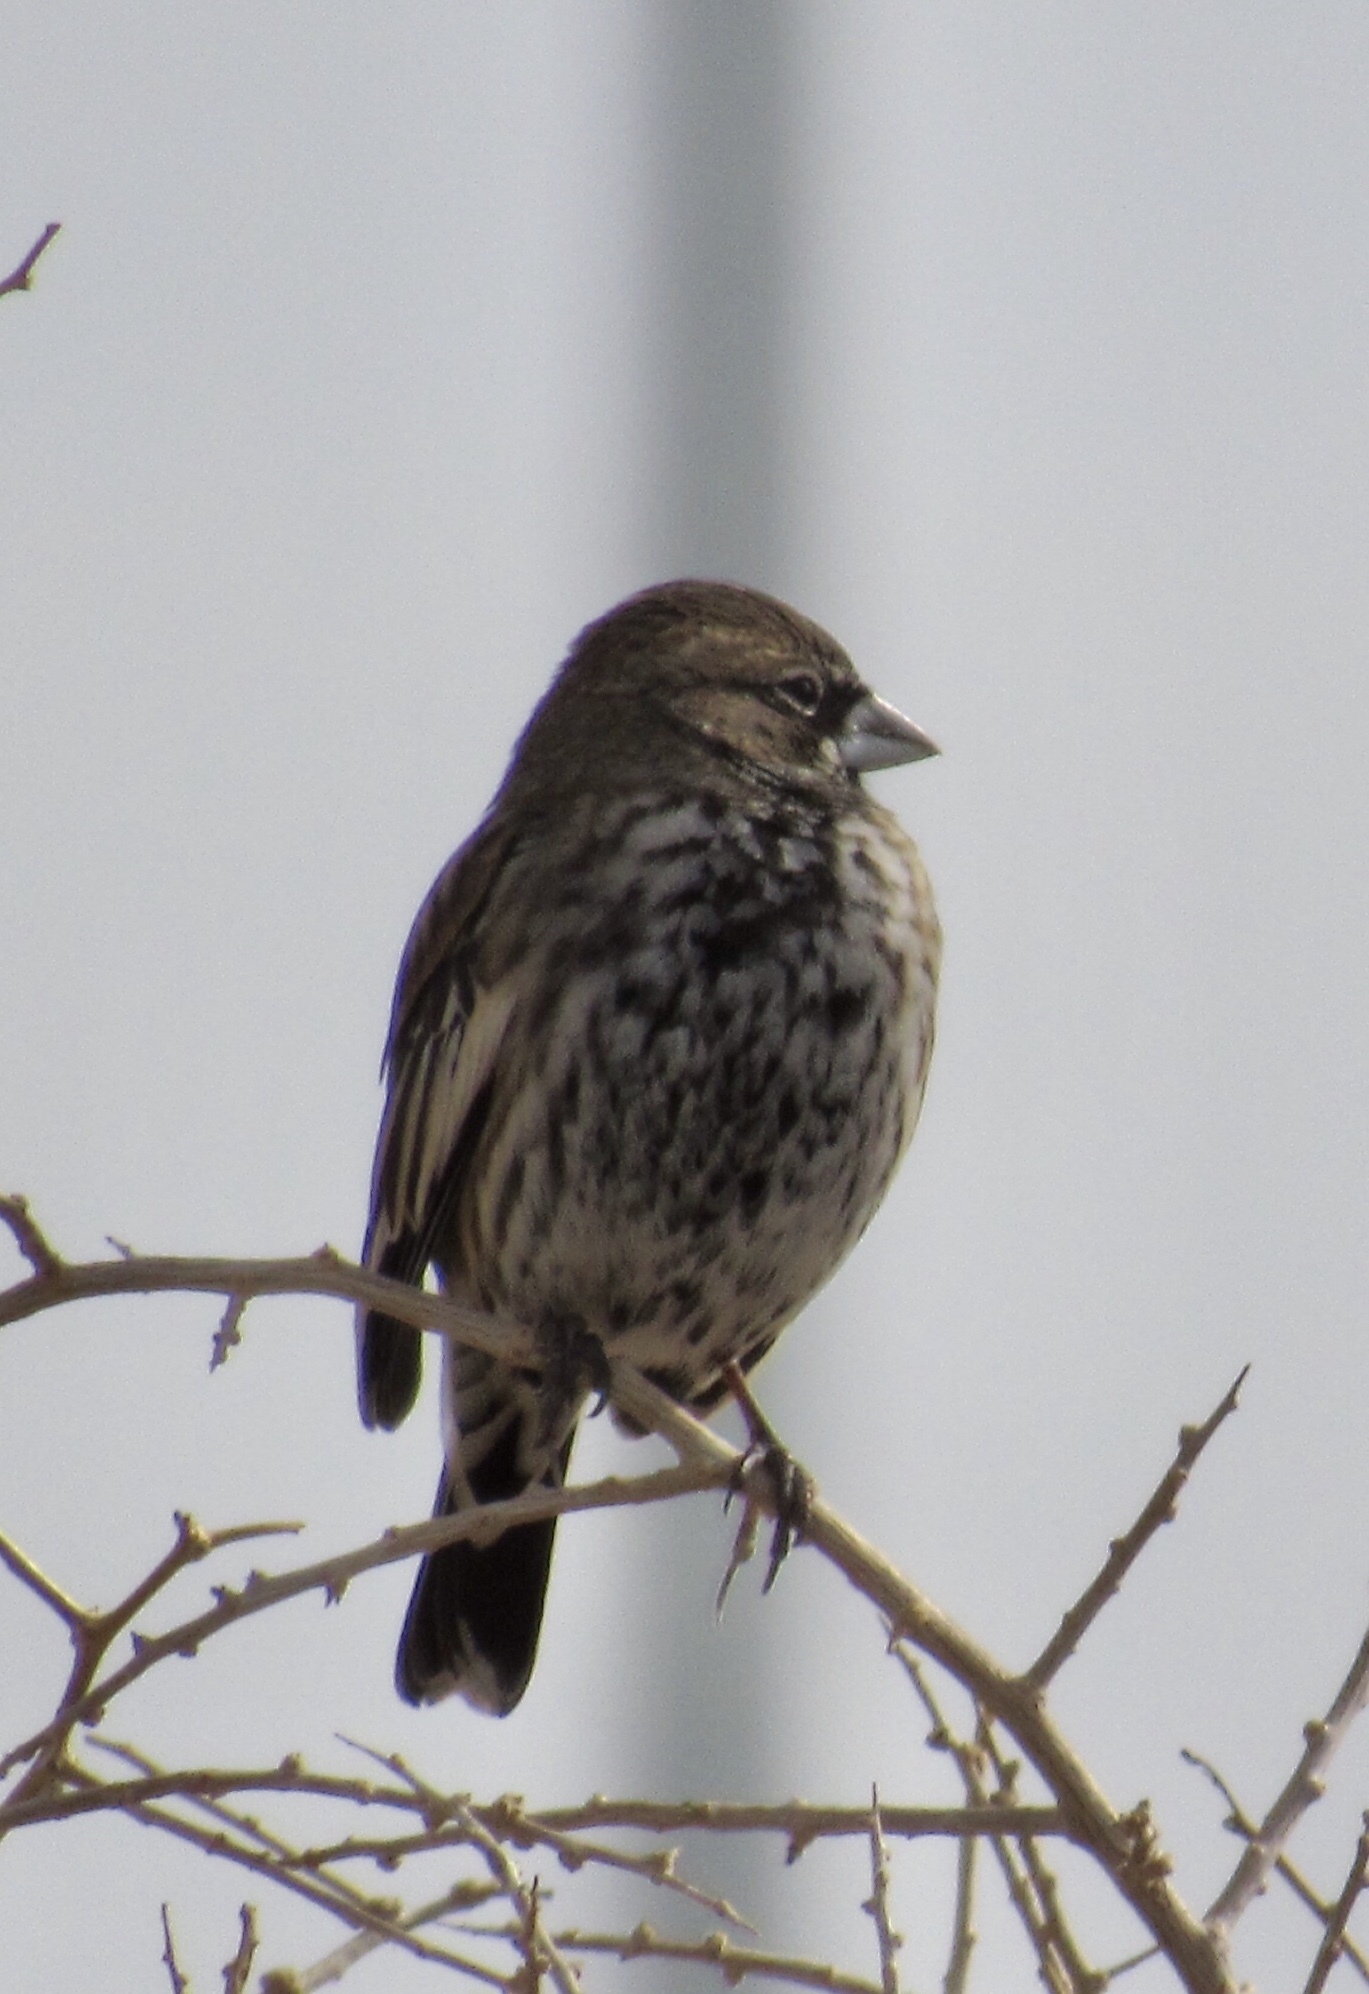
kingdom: Animalia
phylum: Chordata
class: Aves
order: Passeriformes
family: Passerellidae
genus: Calamospiza
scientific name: Calamospiza melanocorys
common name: Lark bunting
